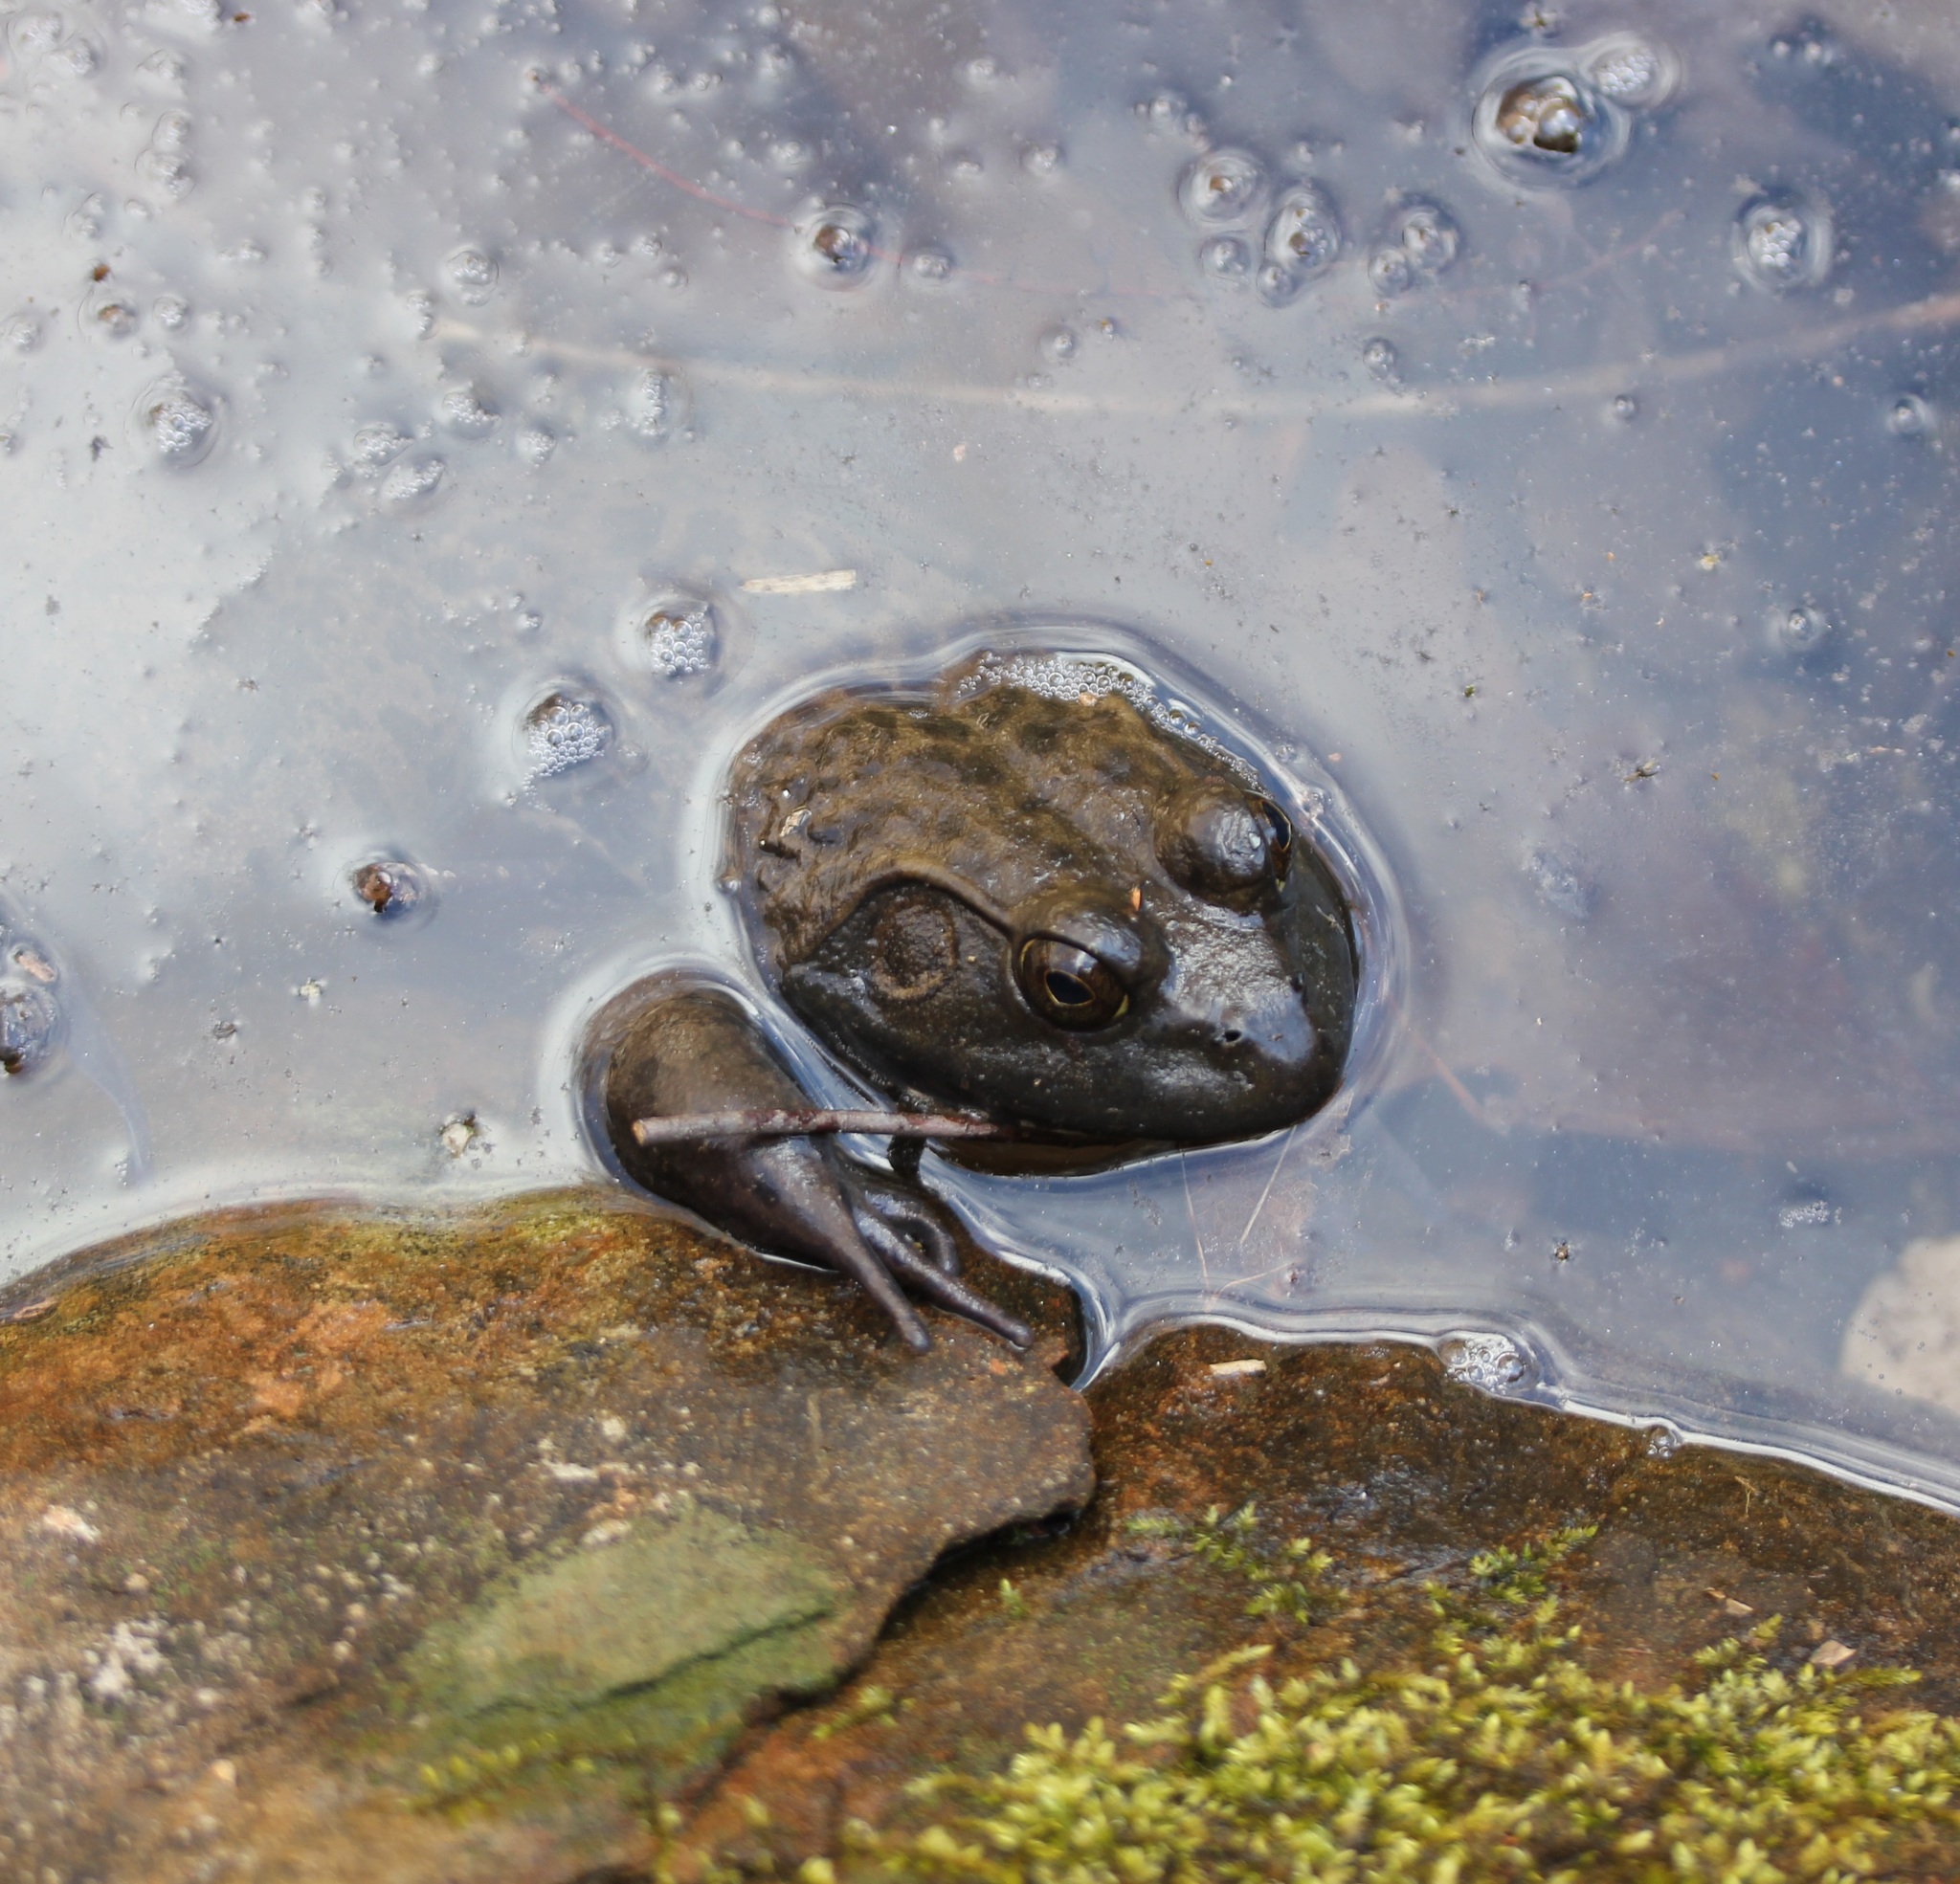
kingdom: Animalia
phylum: Chordata
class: Amphibia
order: Anura
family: Ranidae
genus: Lithobates
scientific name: Lithobates catesbeianus
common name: American bullfrog
